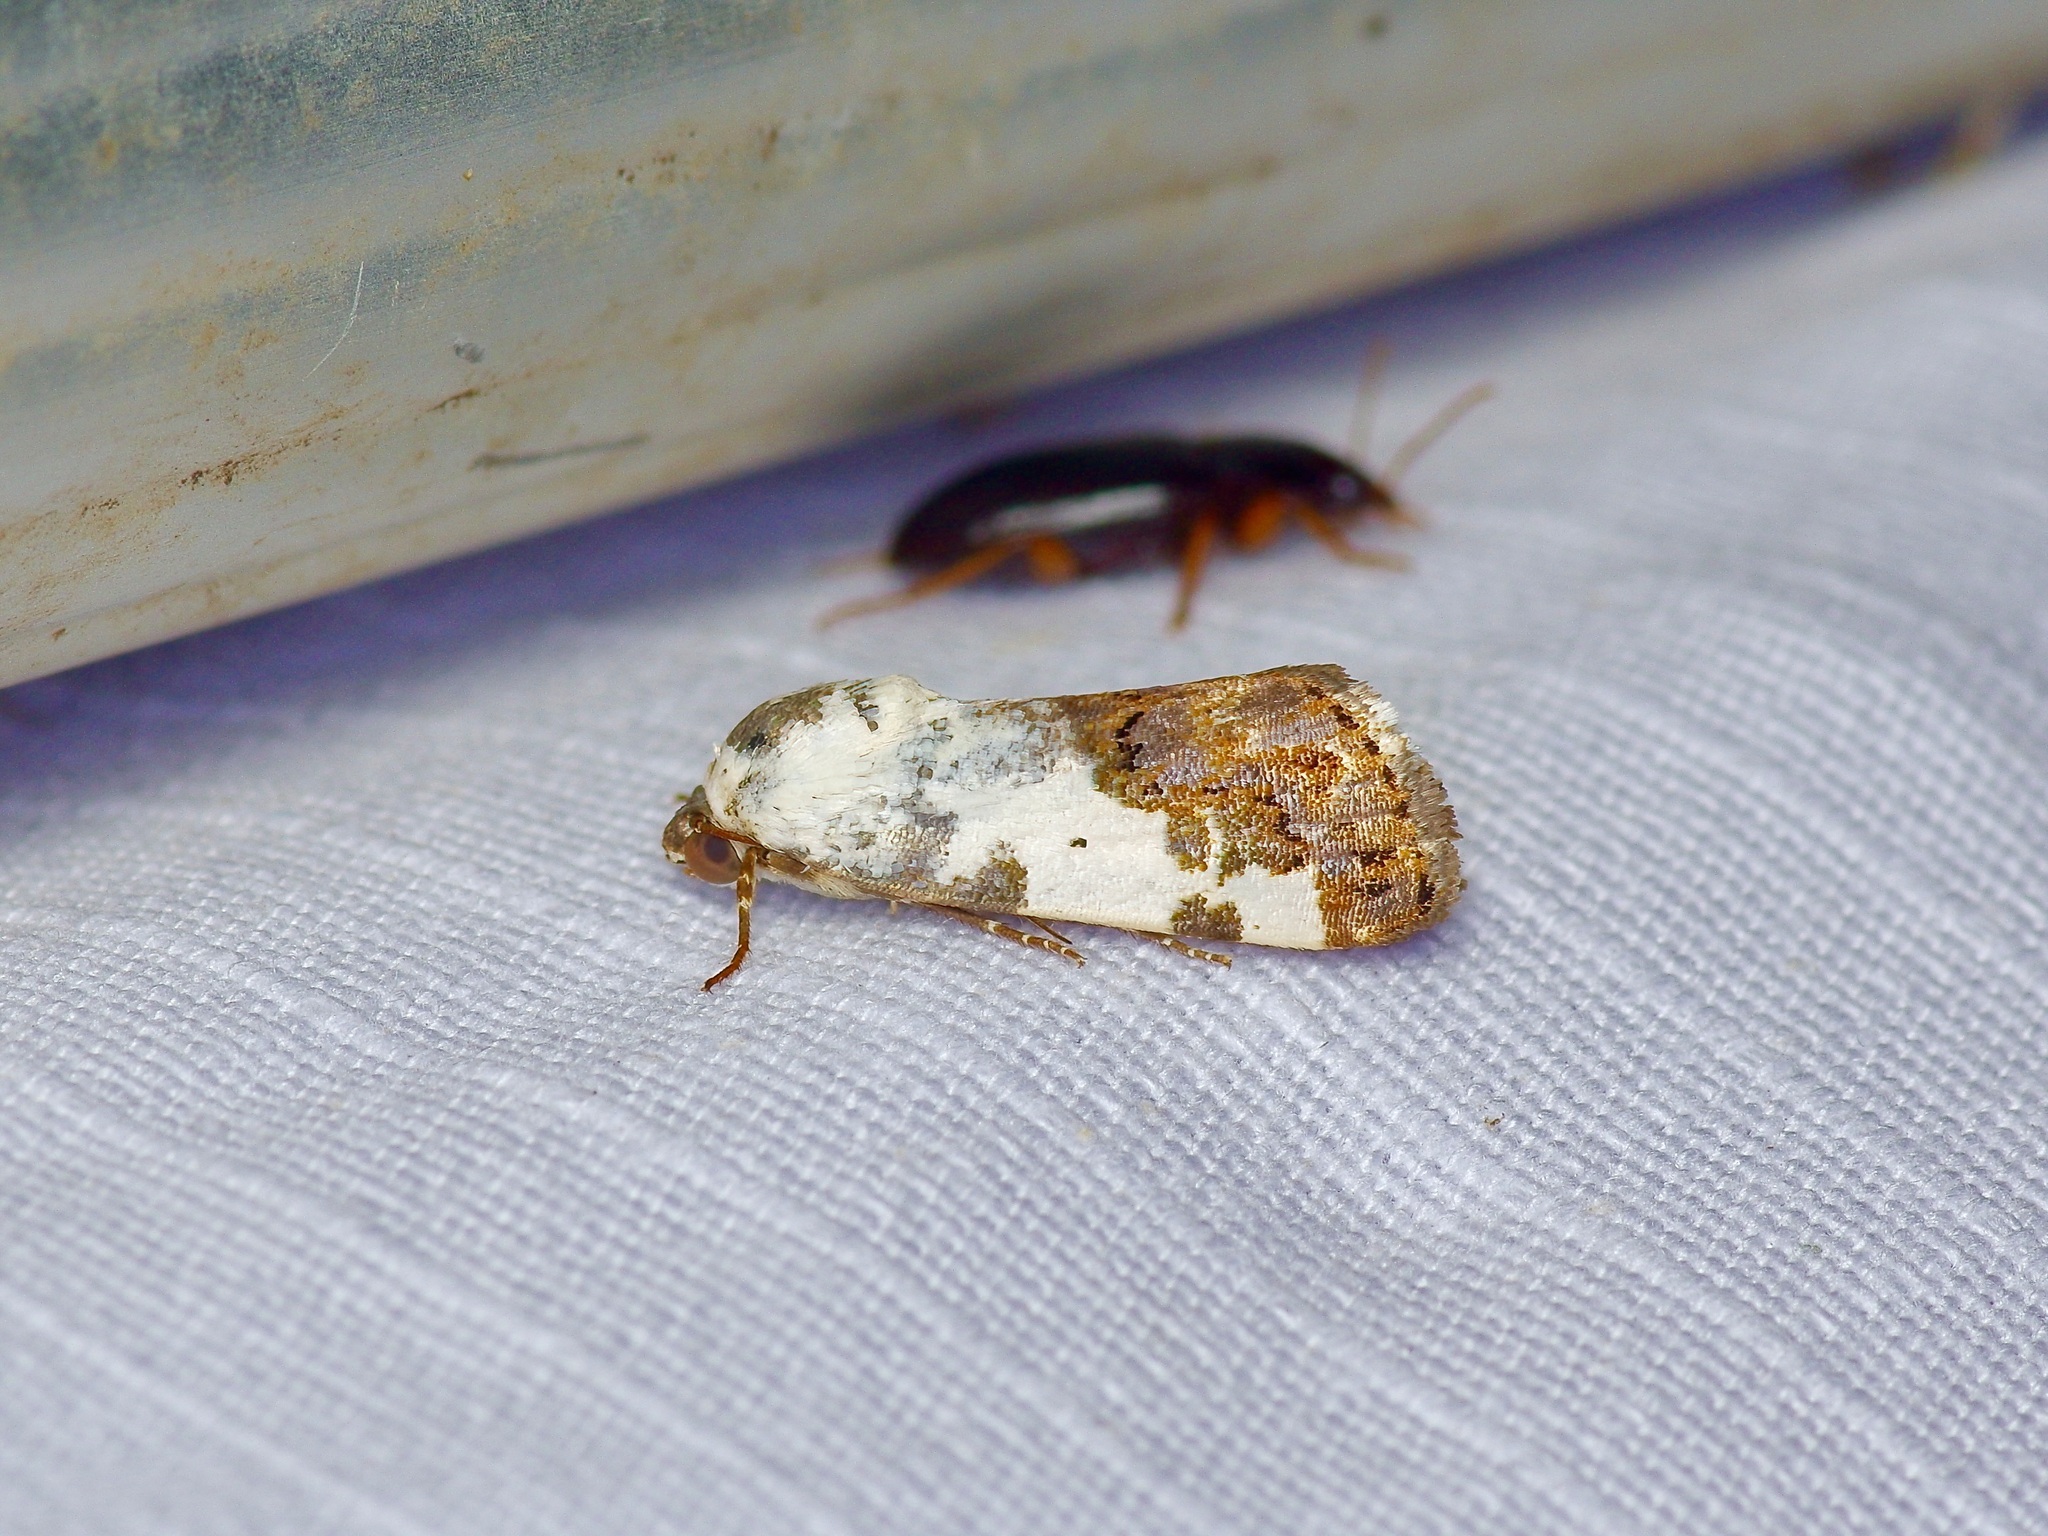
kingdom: Animalia
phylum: Arthropoda
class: Insecta
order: Lepidoptera
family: Noctuidae
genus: Acontia
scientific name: Acontia aprica
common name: Nun
